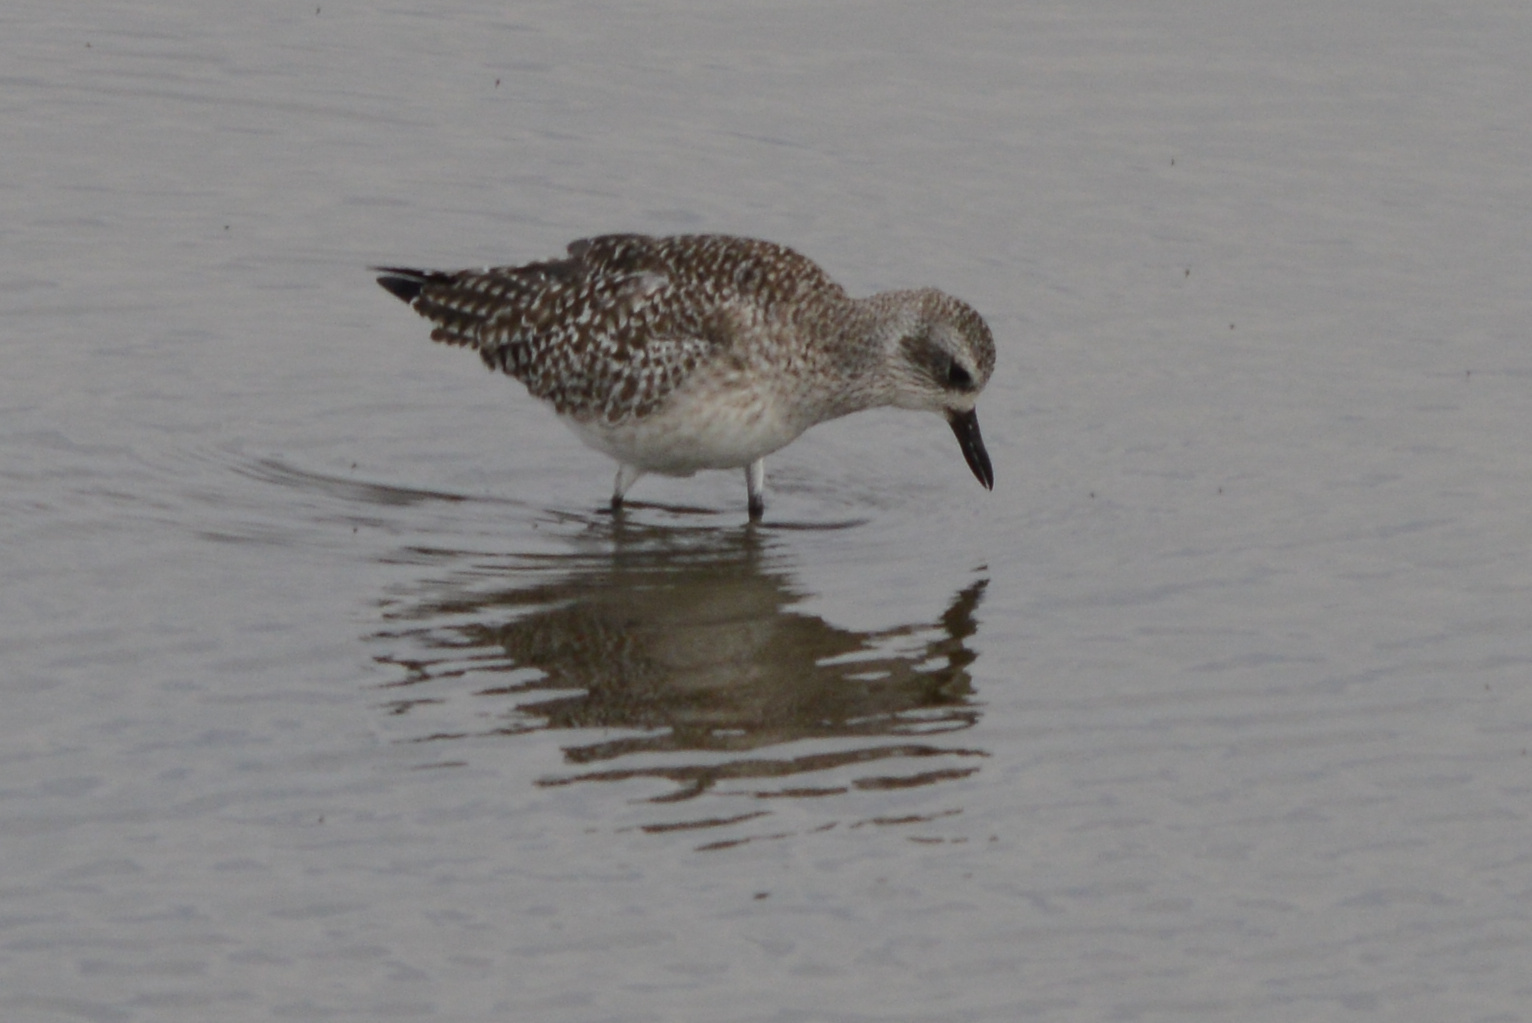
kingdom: Animalia
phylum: Chordata
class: Aves
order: Charadriiformes
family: Charadriidae
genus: Pluvialis
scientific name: Pluvialis squatarola
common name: Grey plover
